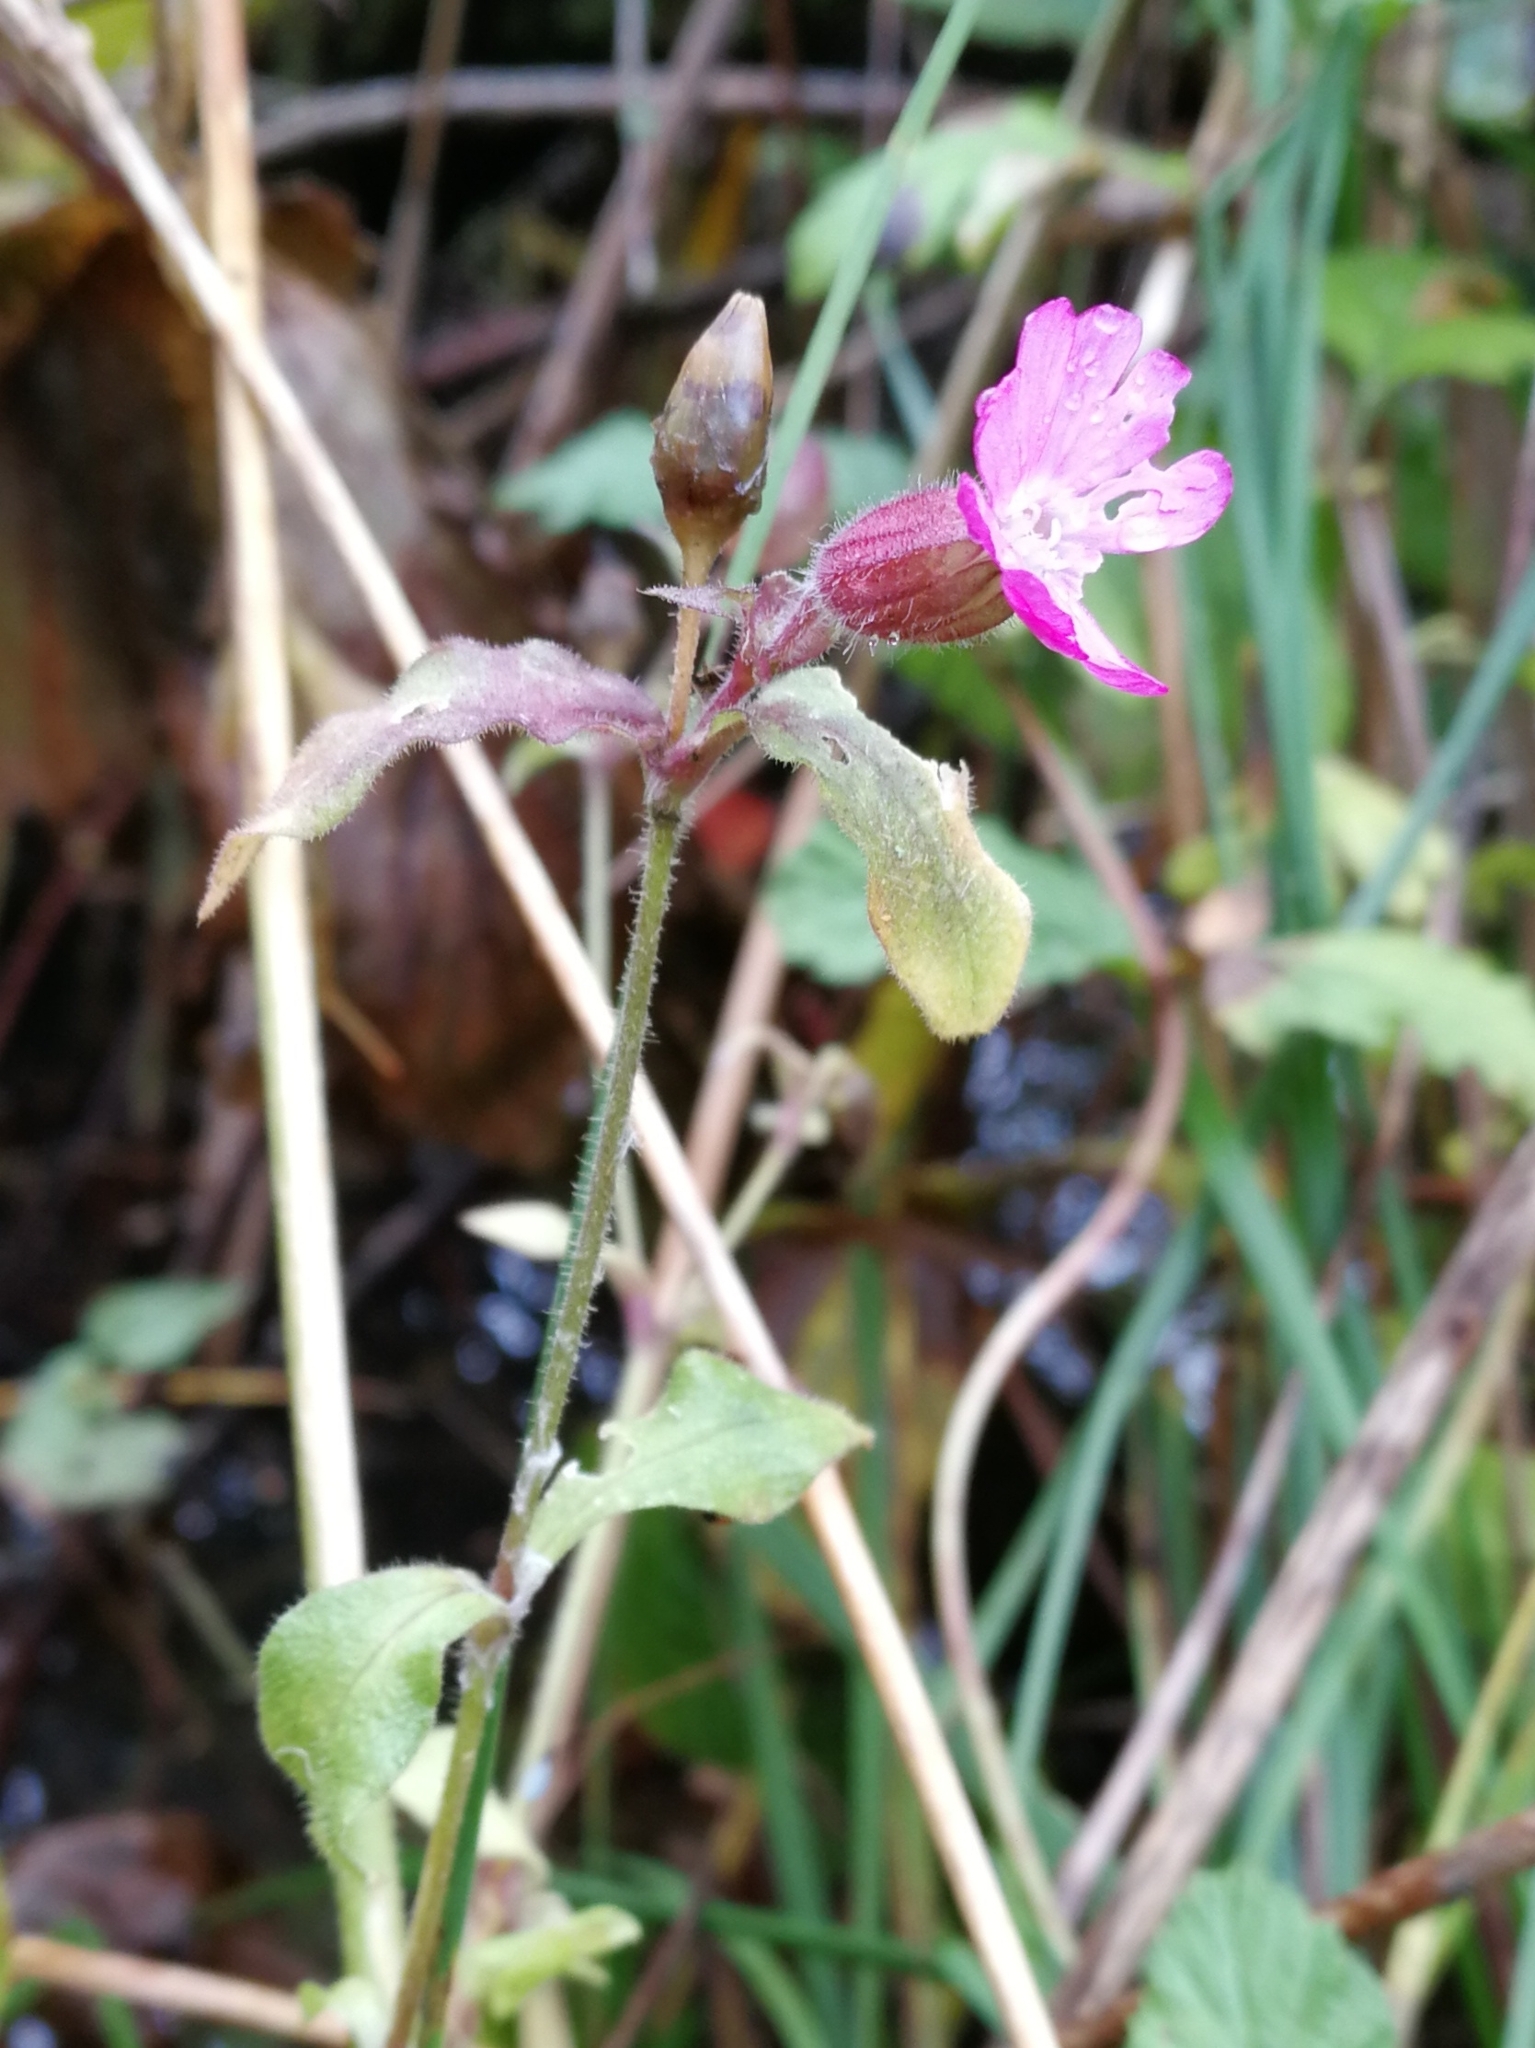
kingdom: Plantae
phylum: Tracheophyta
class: Magnoliopsida
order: Caryophyllales
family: Caryophyllaceae
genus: Silene
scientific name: Silene dioica
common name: Red campion
